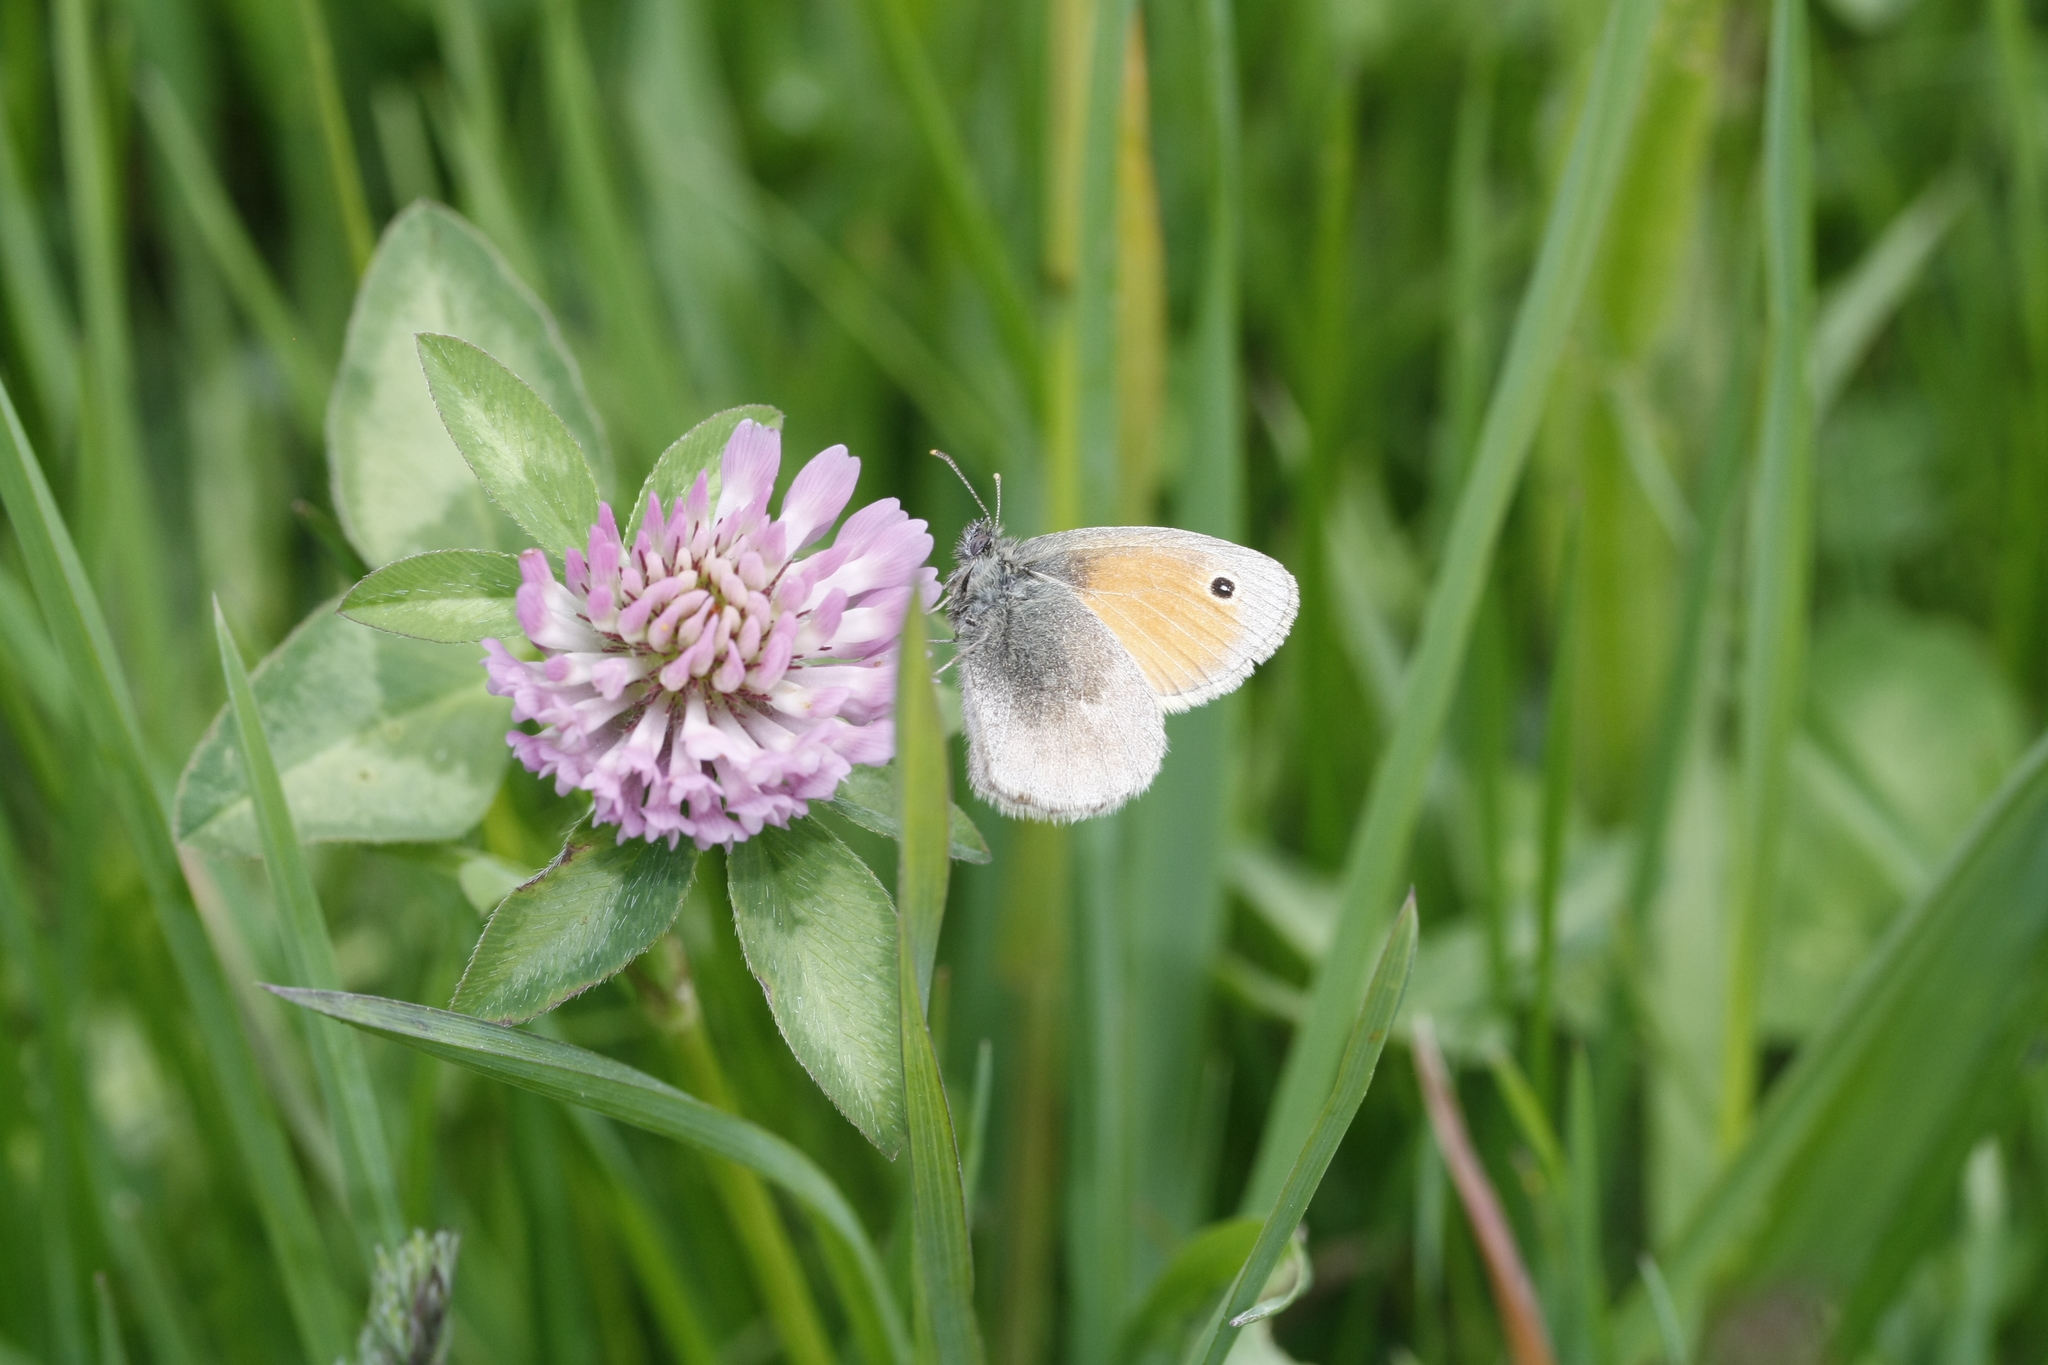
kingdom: Animalia
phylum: Arthropoda
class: Insecta
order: Lepidoptera
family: Nymphalidae
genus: Coenonympha
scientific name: Coenonympha pamphilus
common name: Small heath
